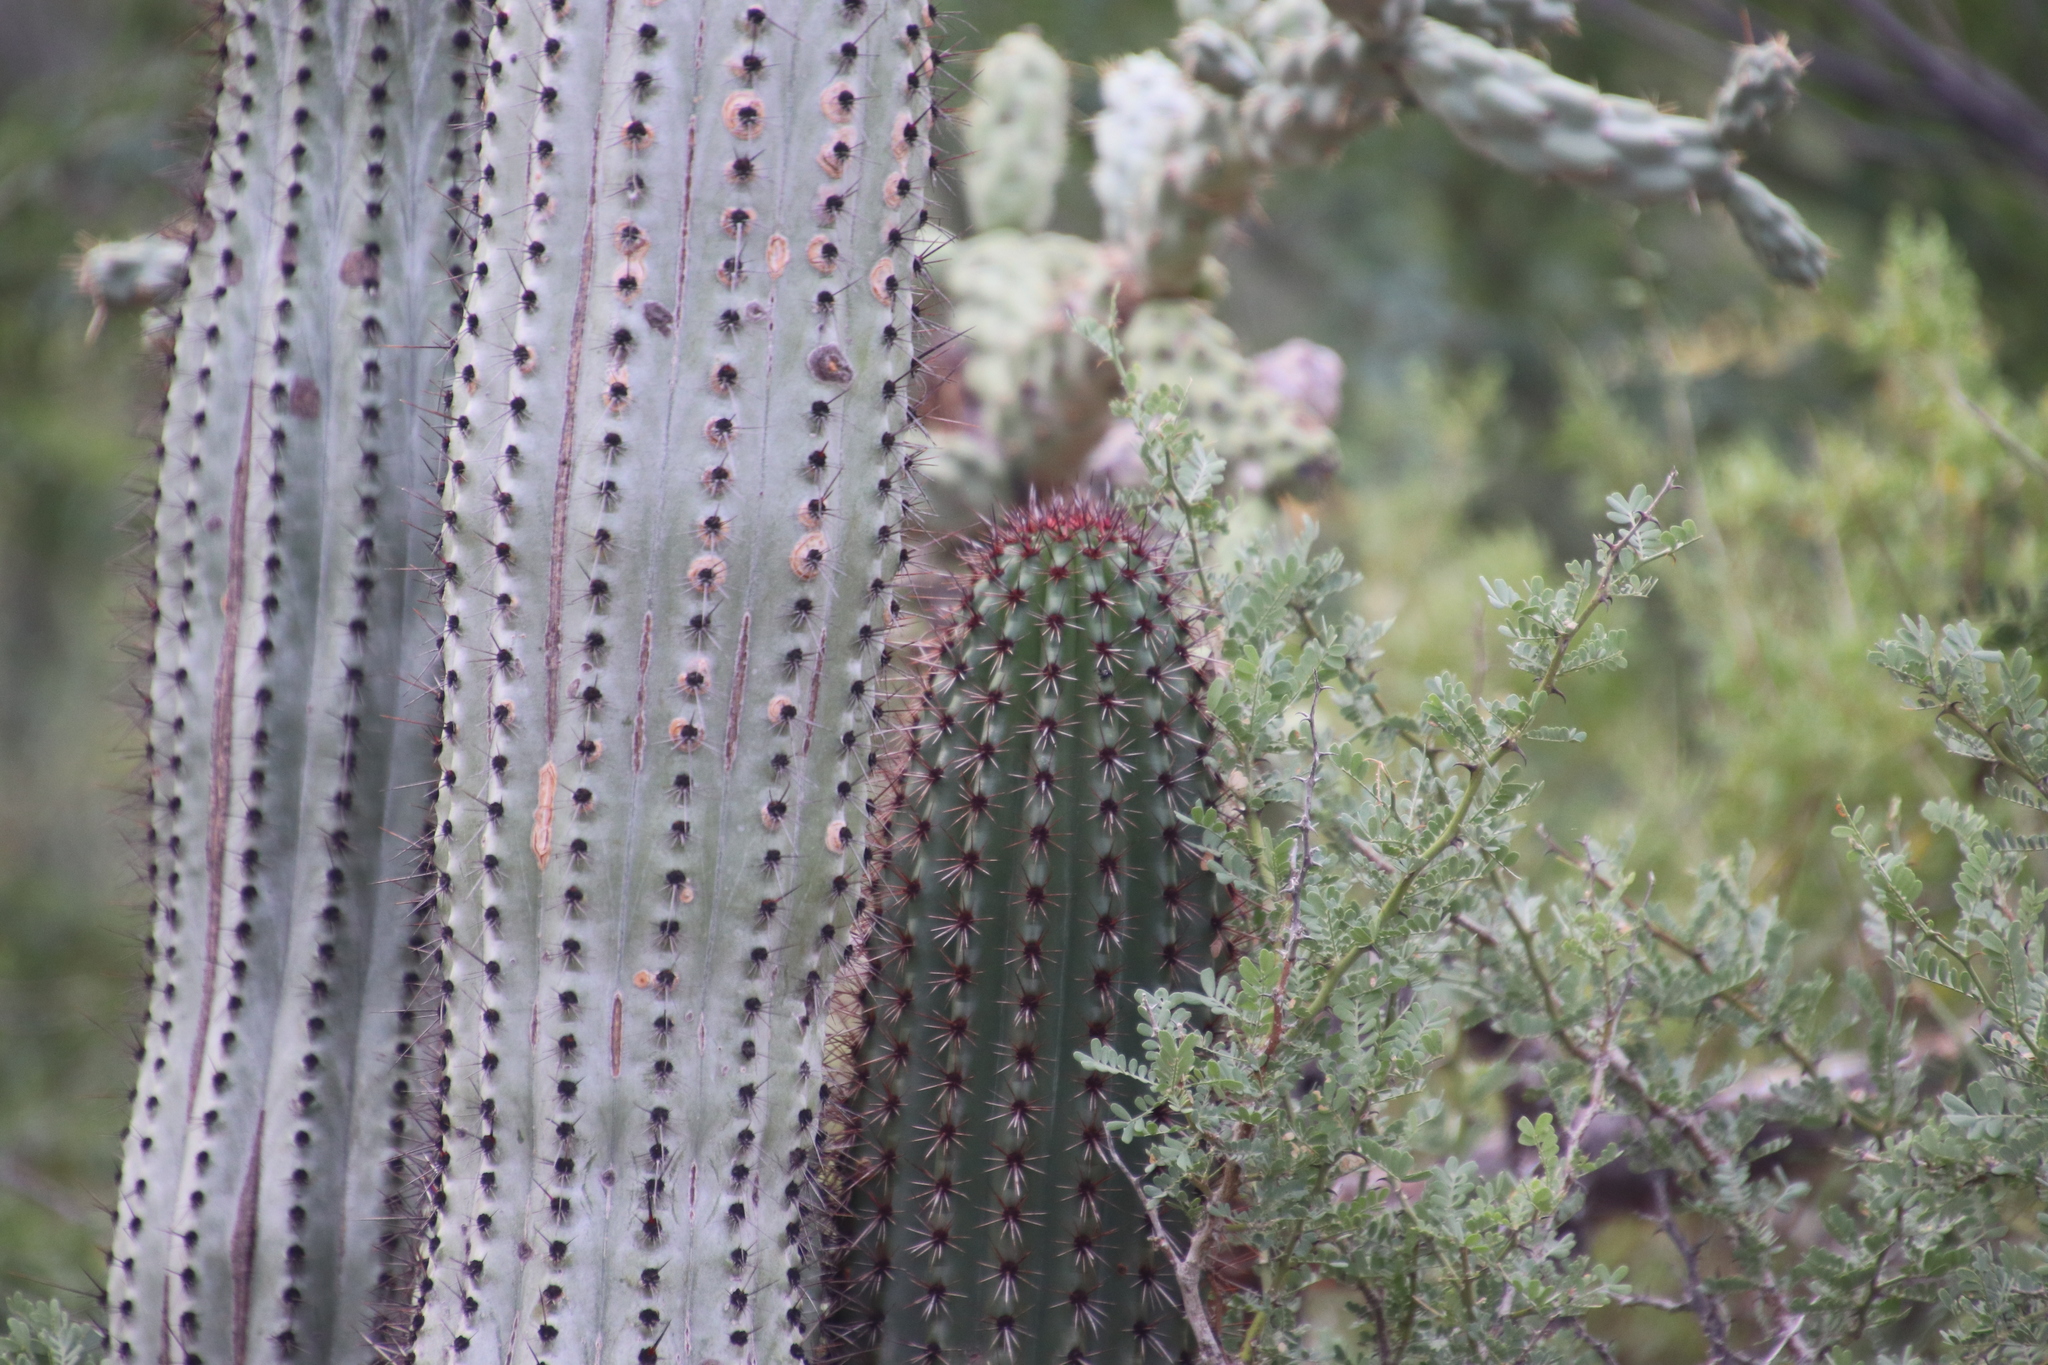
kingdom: Plantae
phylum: Tracheophyta
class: Magnoliopsida
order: Caryophyllales
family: Cactaceae
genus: Stenocereus
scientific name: Stenocereus thurberi
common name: Organ pipe cactus
